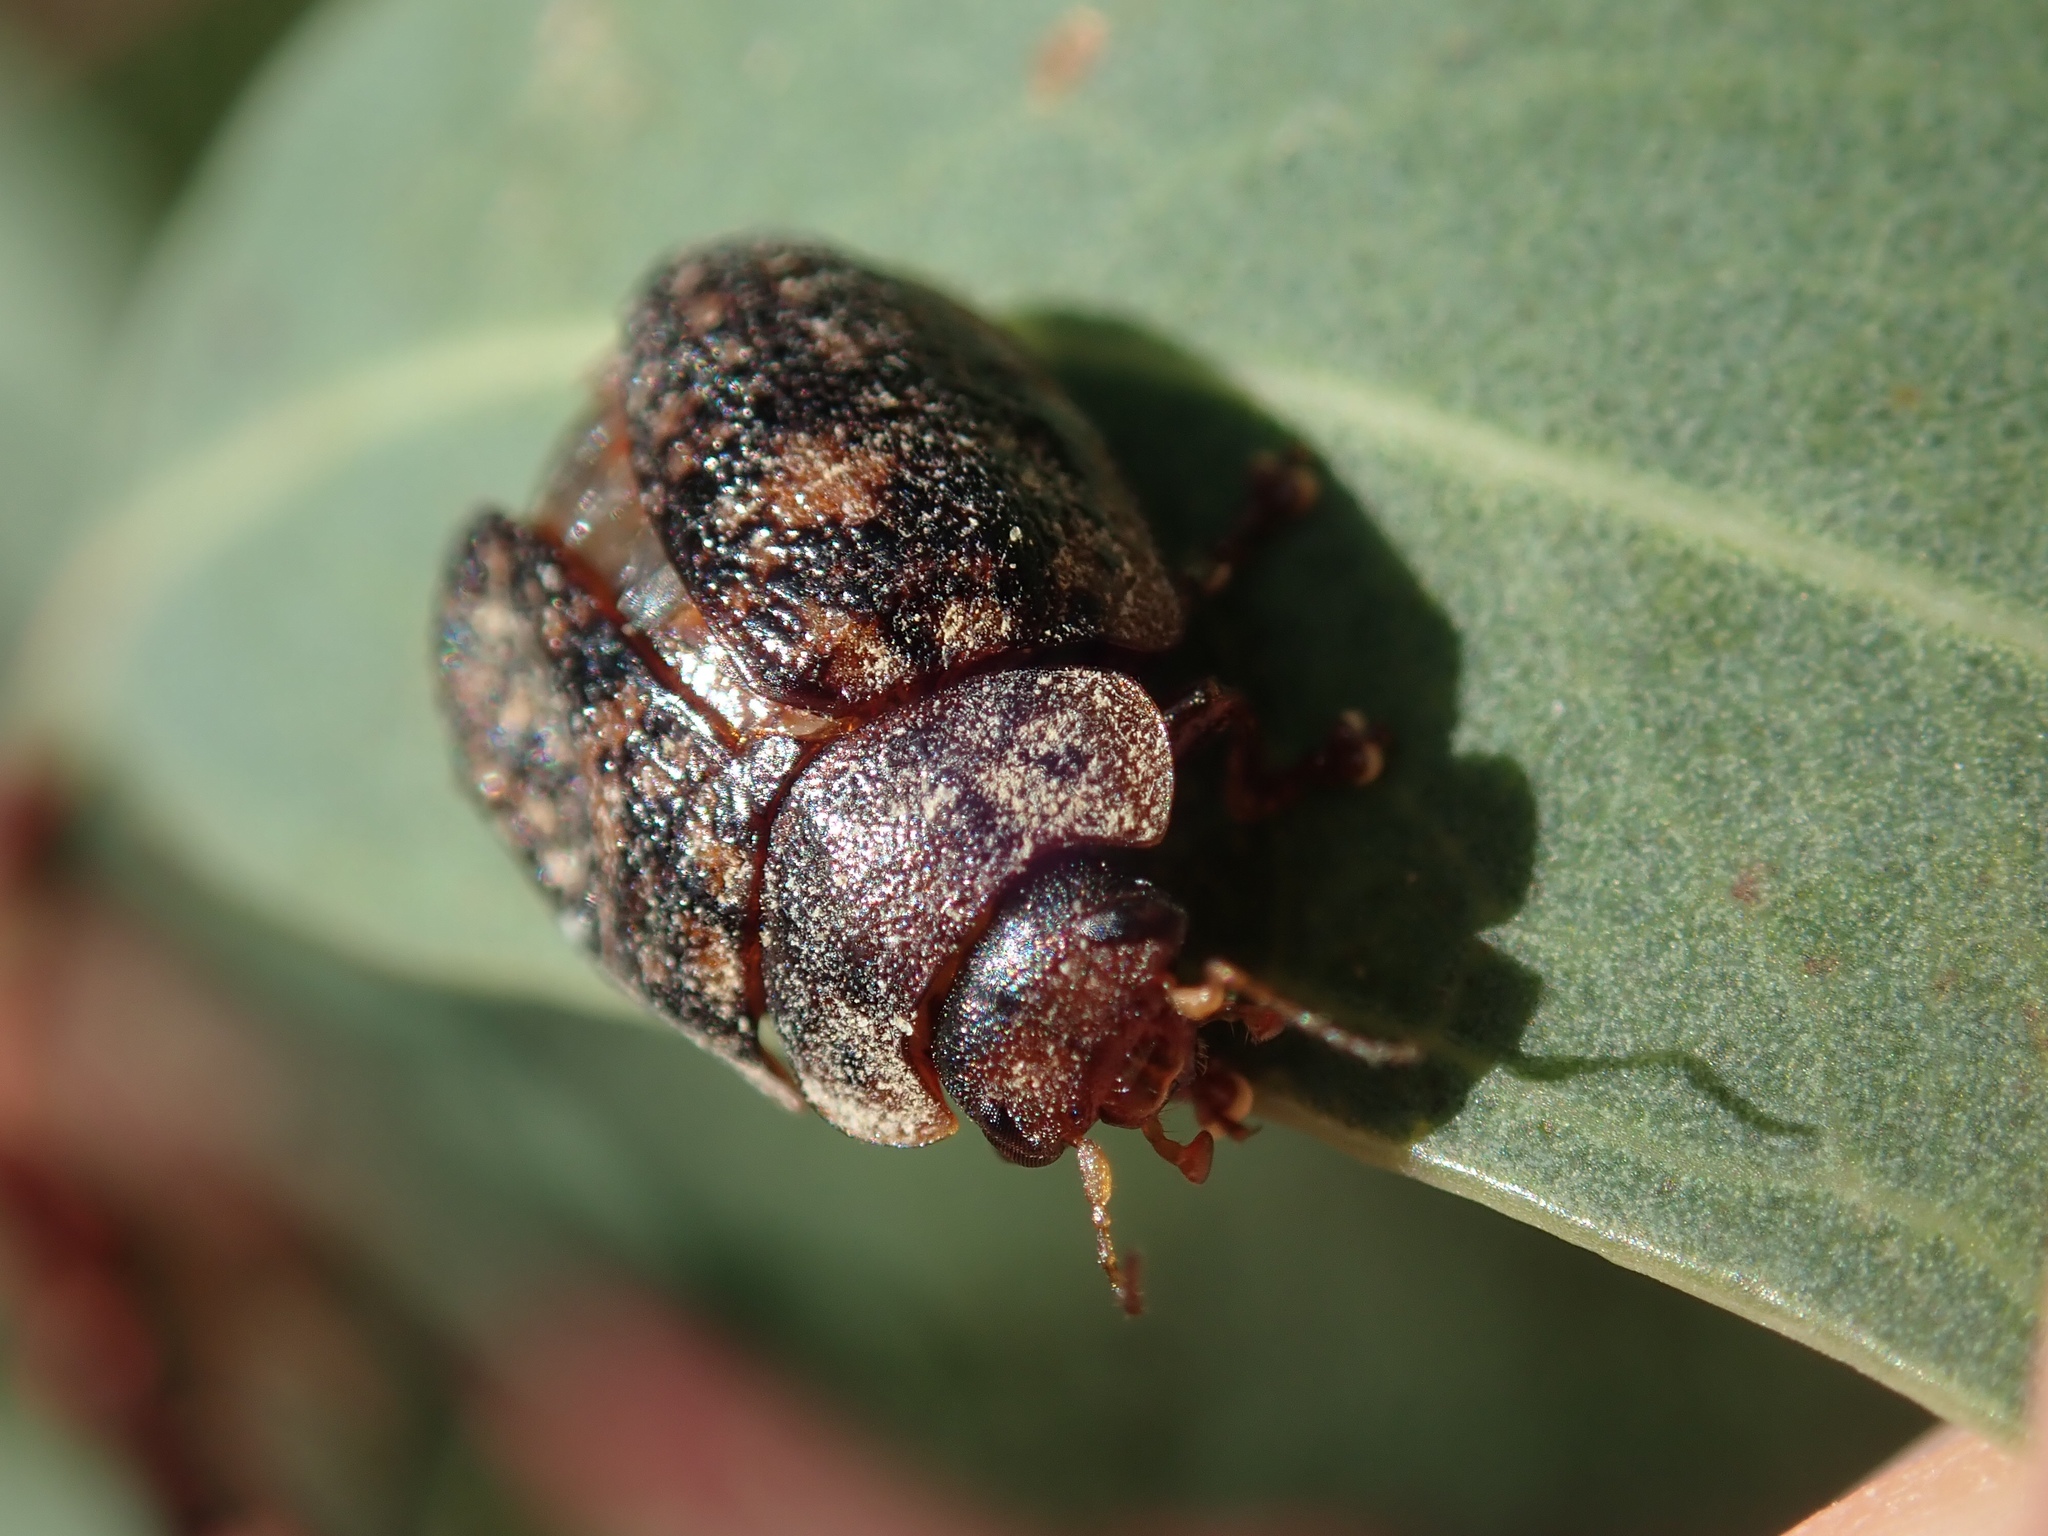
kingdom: Animalia
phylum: Arthropoda
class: Insecta
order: Coleoptera
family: Chrysomelidae
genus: Trachymela
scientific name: Trachymela sloanei
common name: Australian tortoise beetle
